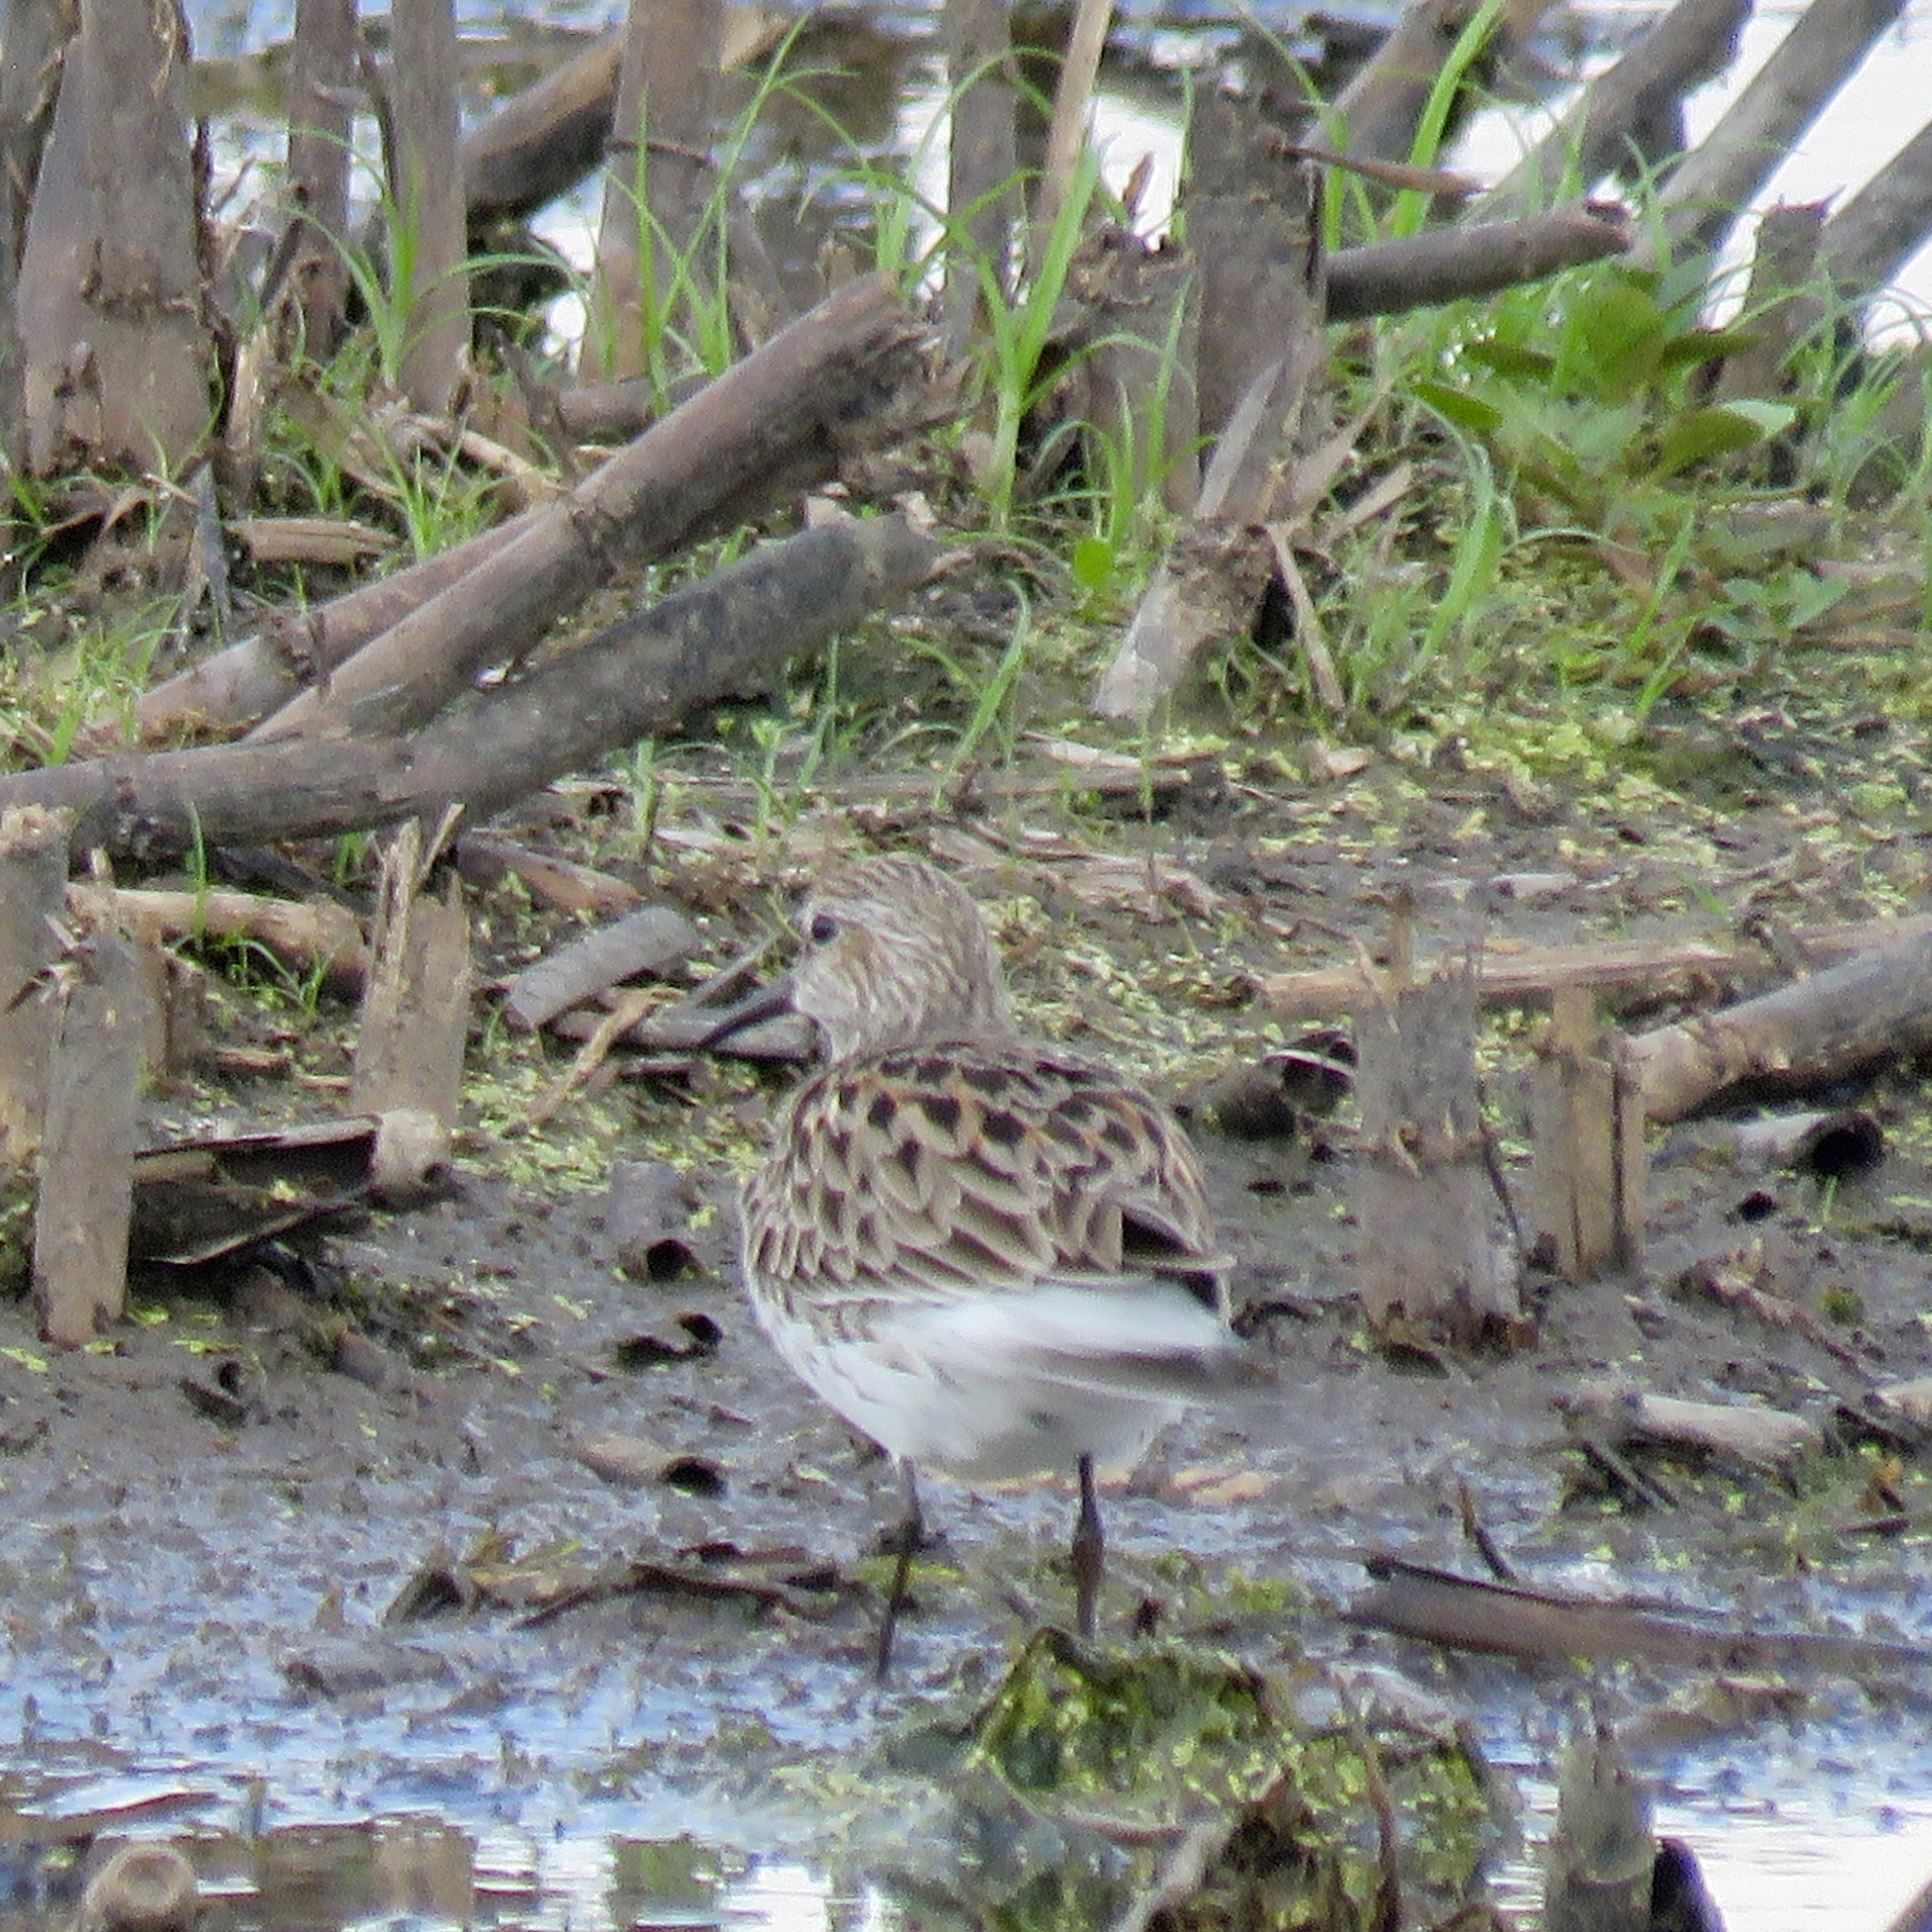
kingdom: Animalia
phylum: Chordata
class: Aves
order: Charadriiformes
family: Scolopacidae
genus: Calidris
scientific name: Calidris fuscicollis
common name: White-rumped sandpiper
